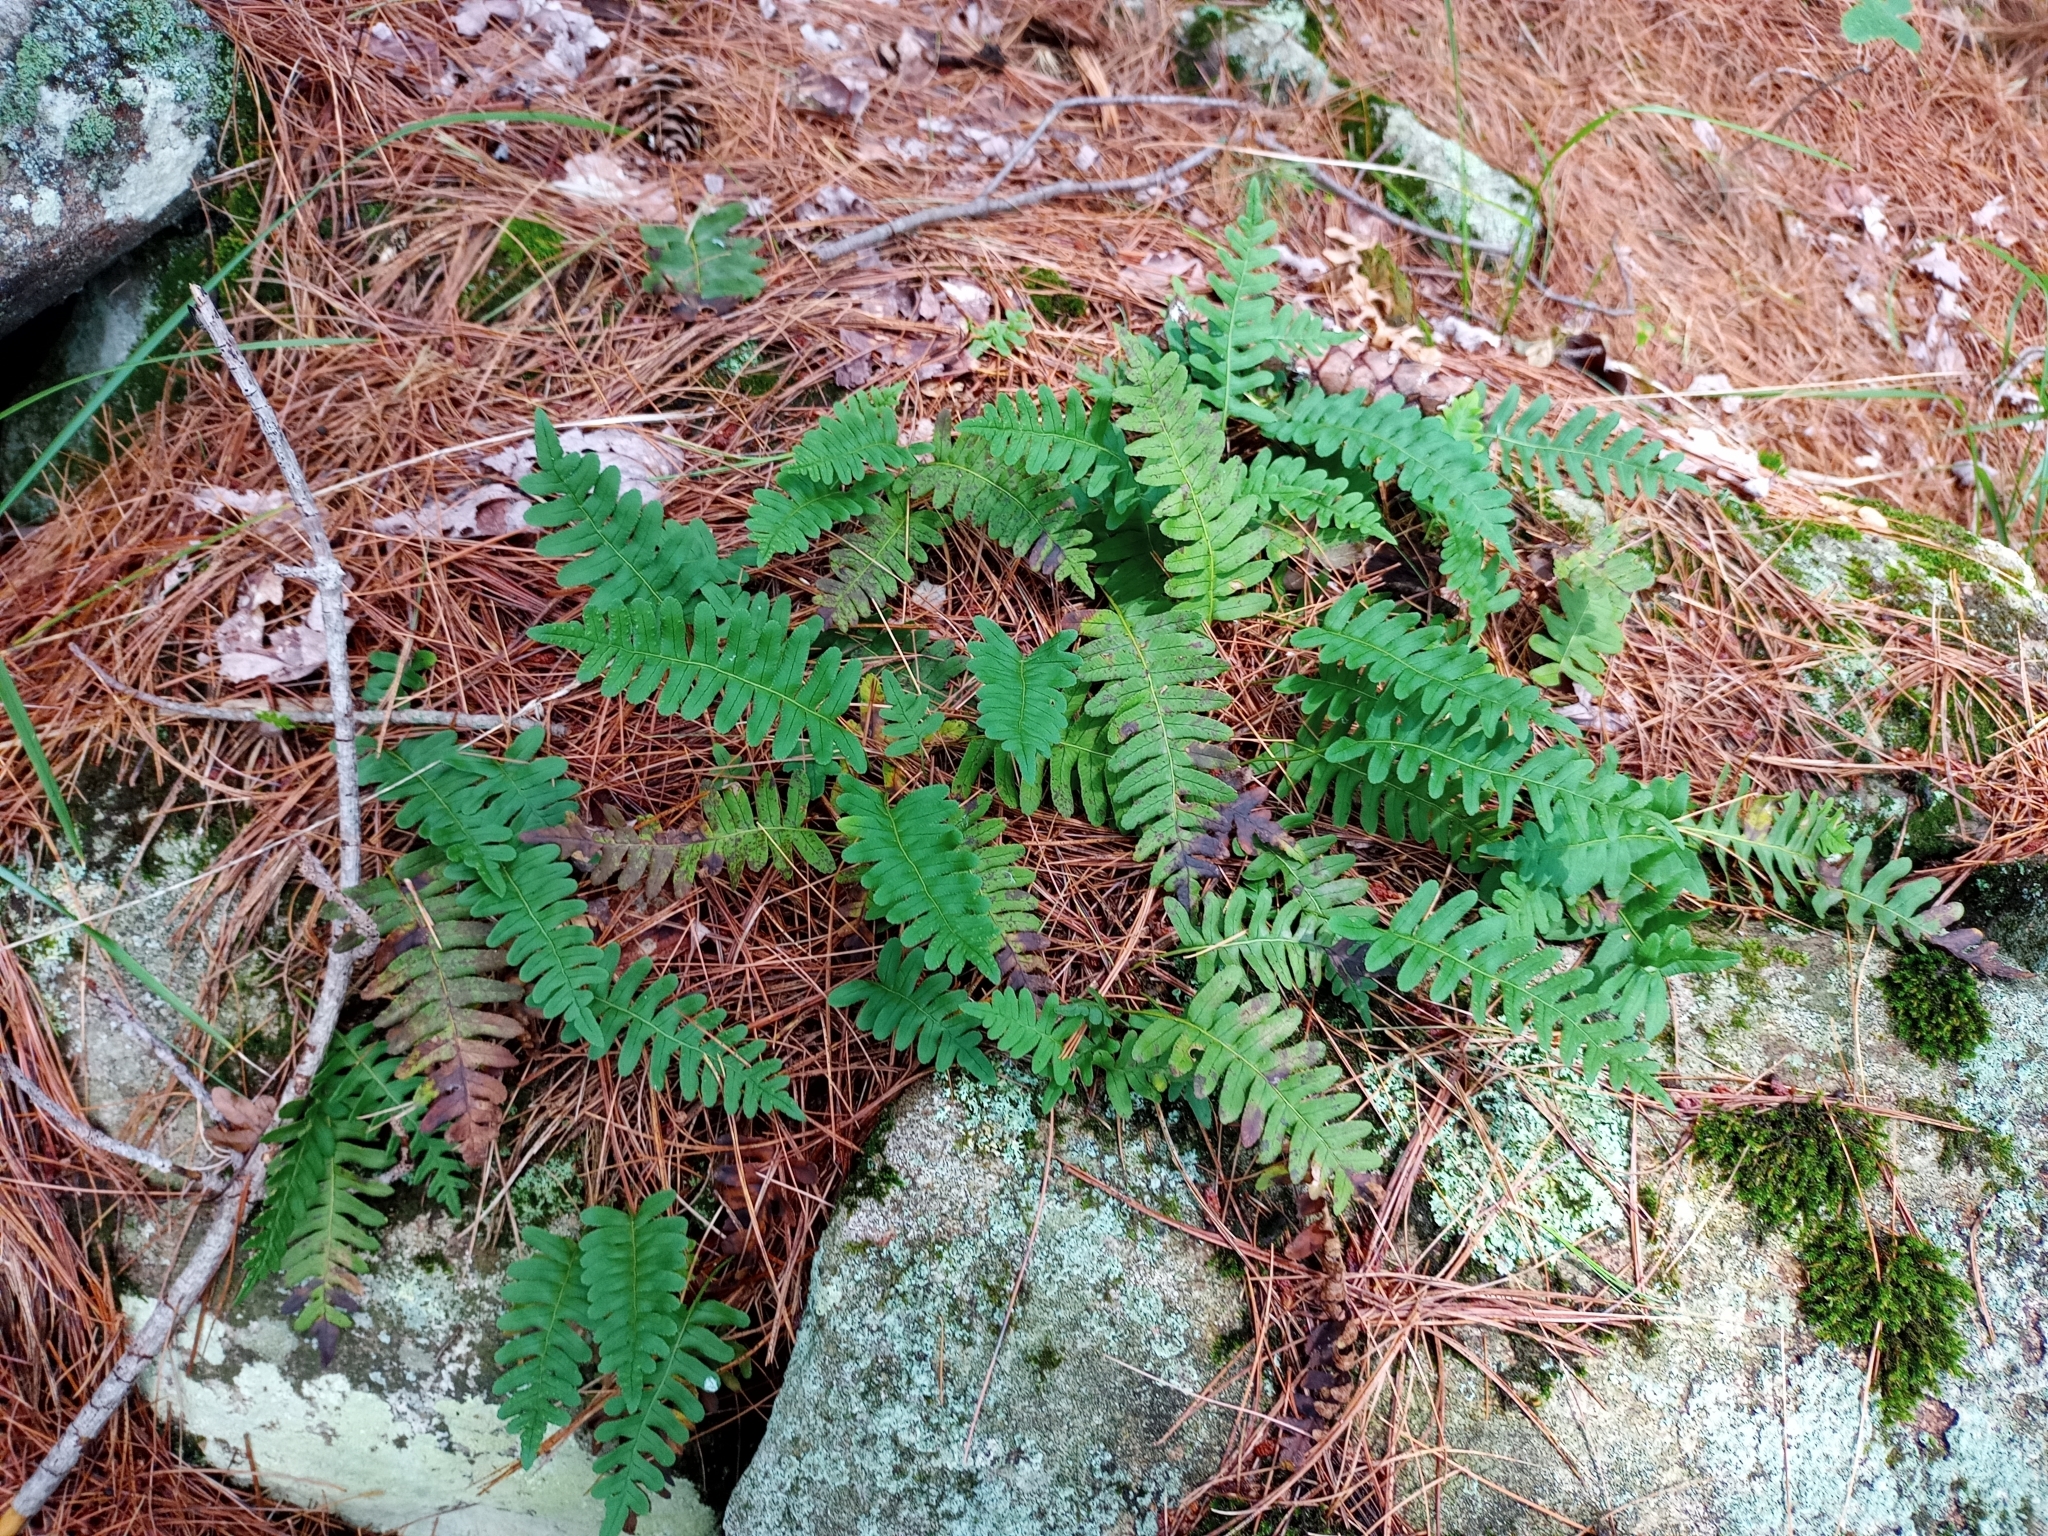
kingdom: Plantae
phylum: Tracheophyta
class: Polypodiopsida
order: Polypodiales
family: Polypodiaceae
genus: Polypodium
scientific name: Polypodium virginianum
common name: American wall fern
